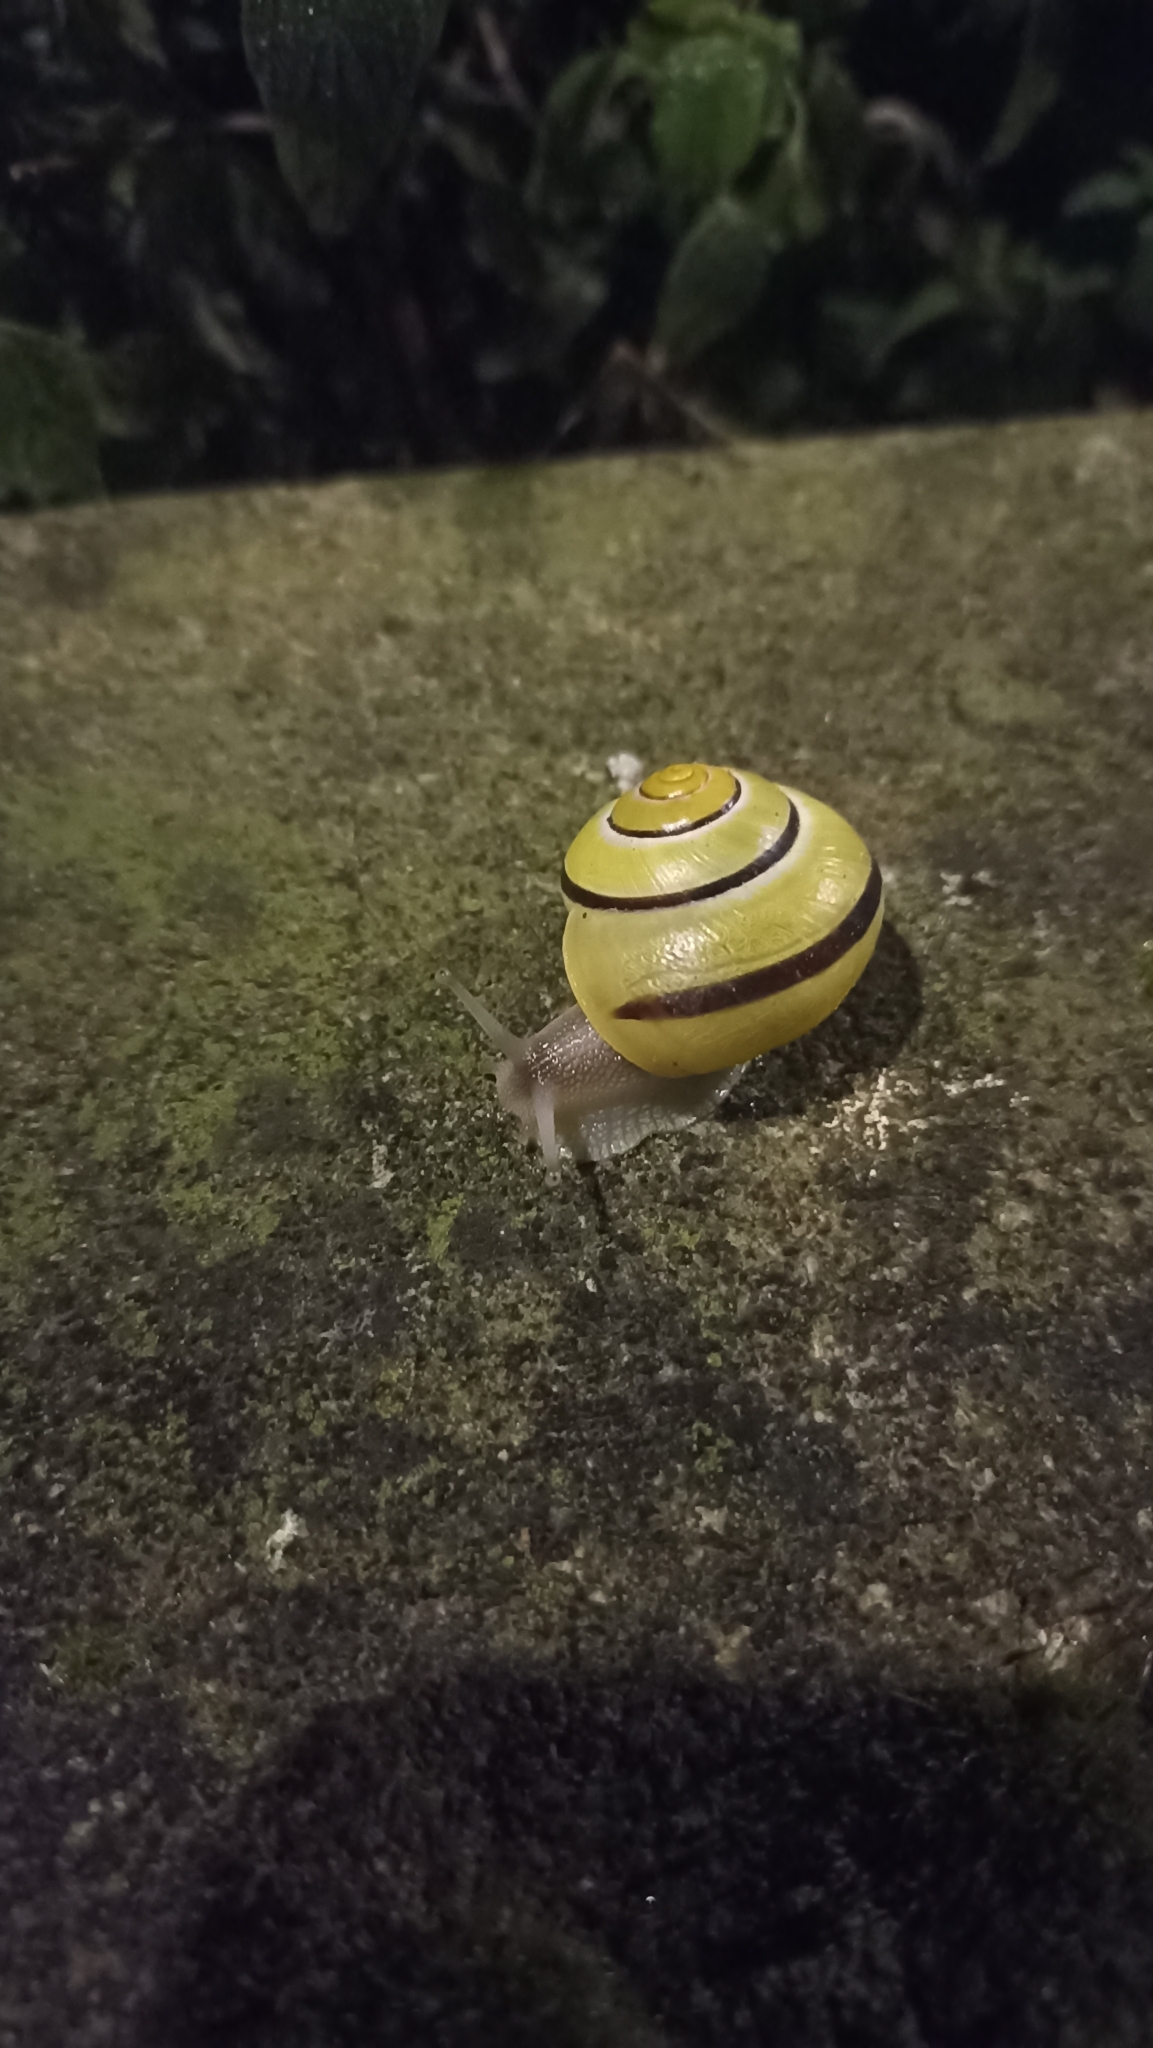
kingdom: Animalia
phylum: Mollusca
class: Gastropoda
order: Stylommatophora
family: Helicidae
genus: Cepaea
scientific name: Cepaea nemoralis
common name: Grovesnail
